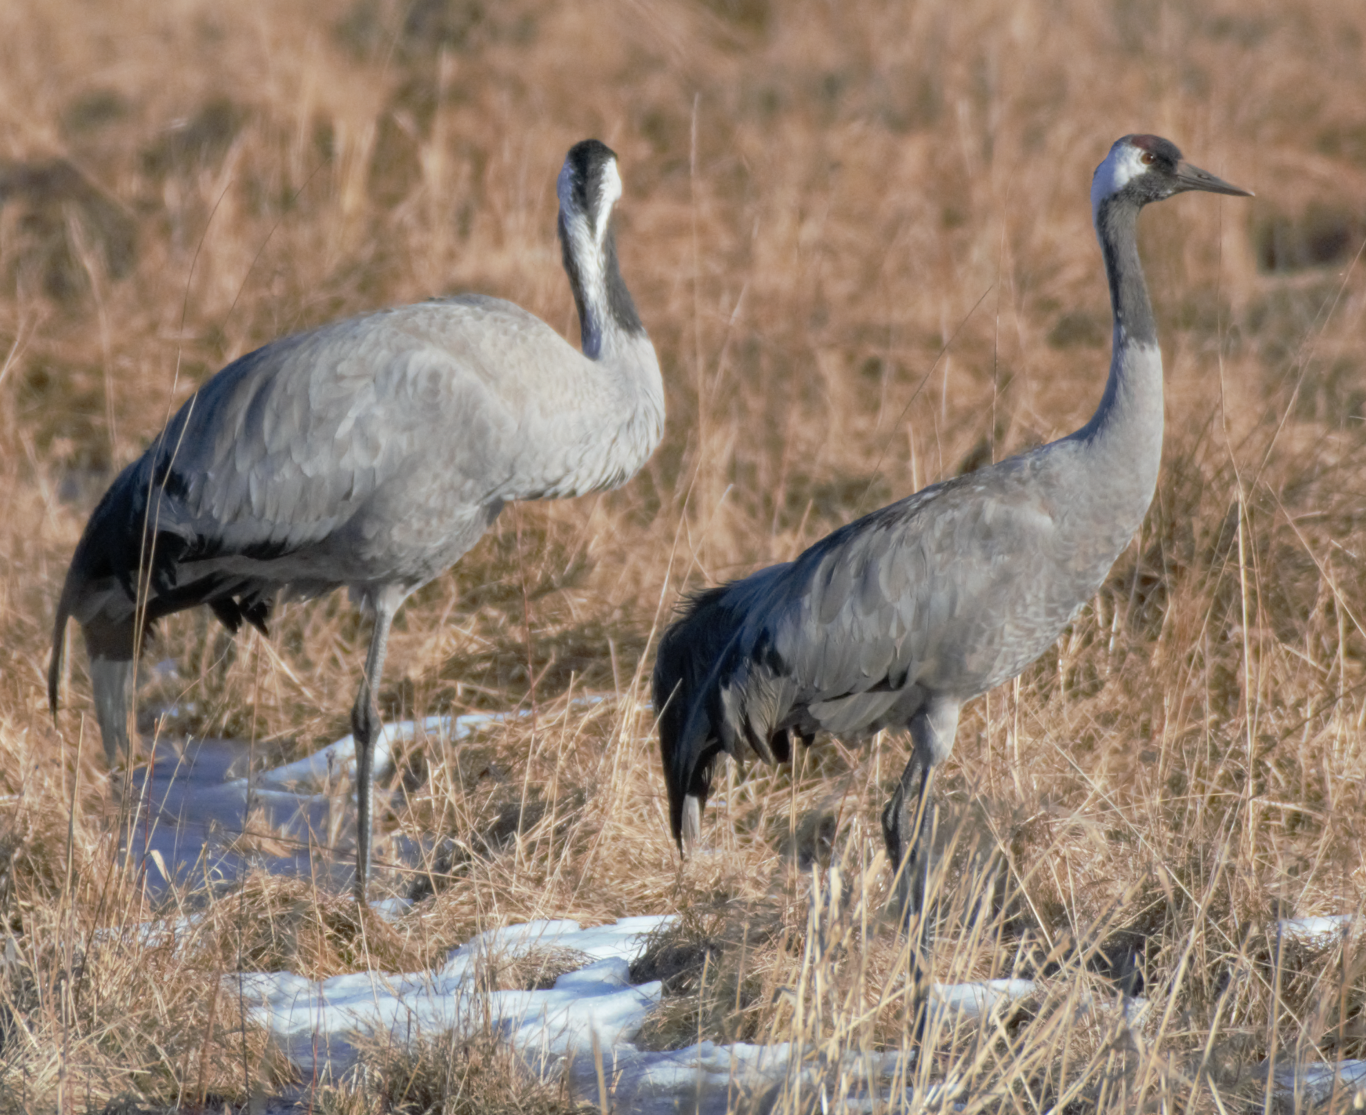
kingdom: Animalia
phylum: Chordata
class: Aves
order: Gruiformes
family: Gruidae
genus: Grus
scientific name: Grus grus
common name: Common crane
